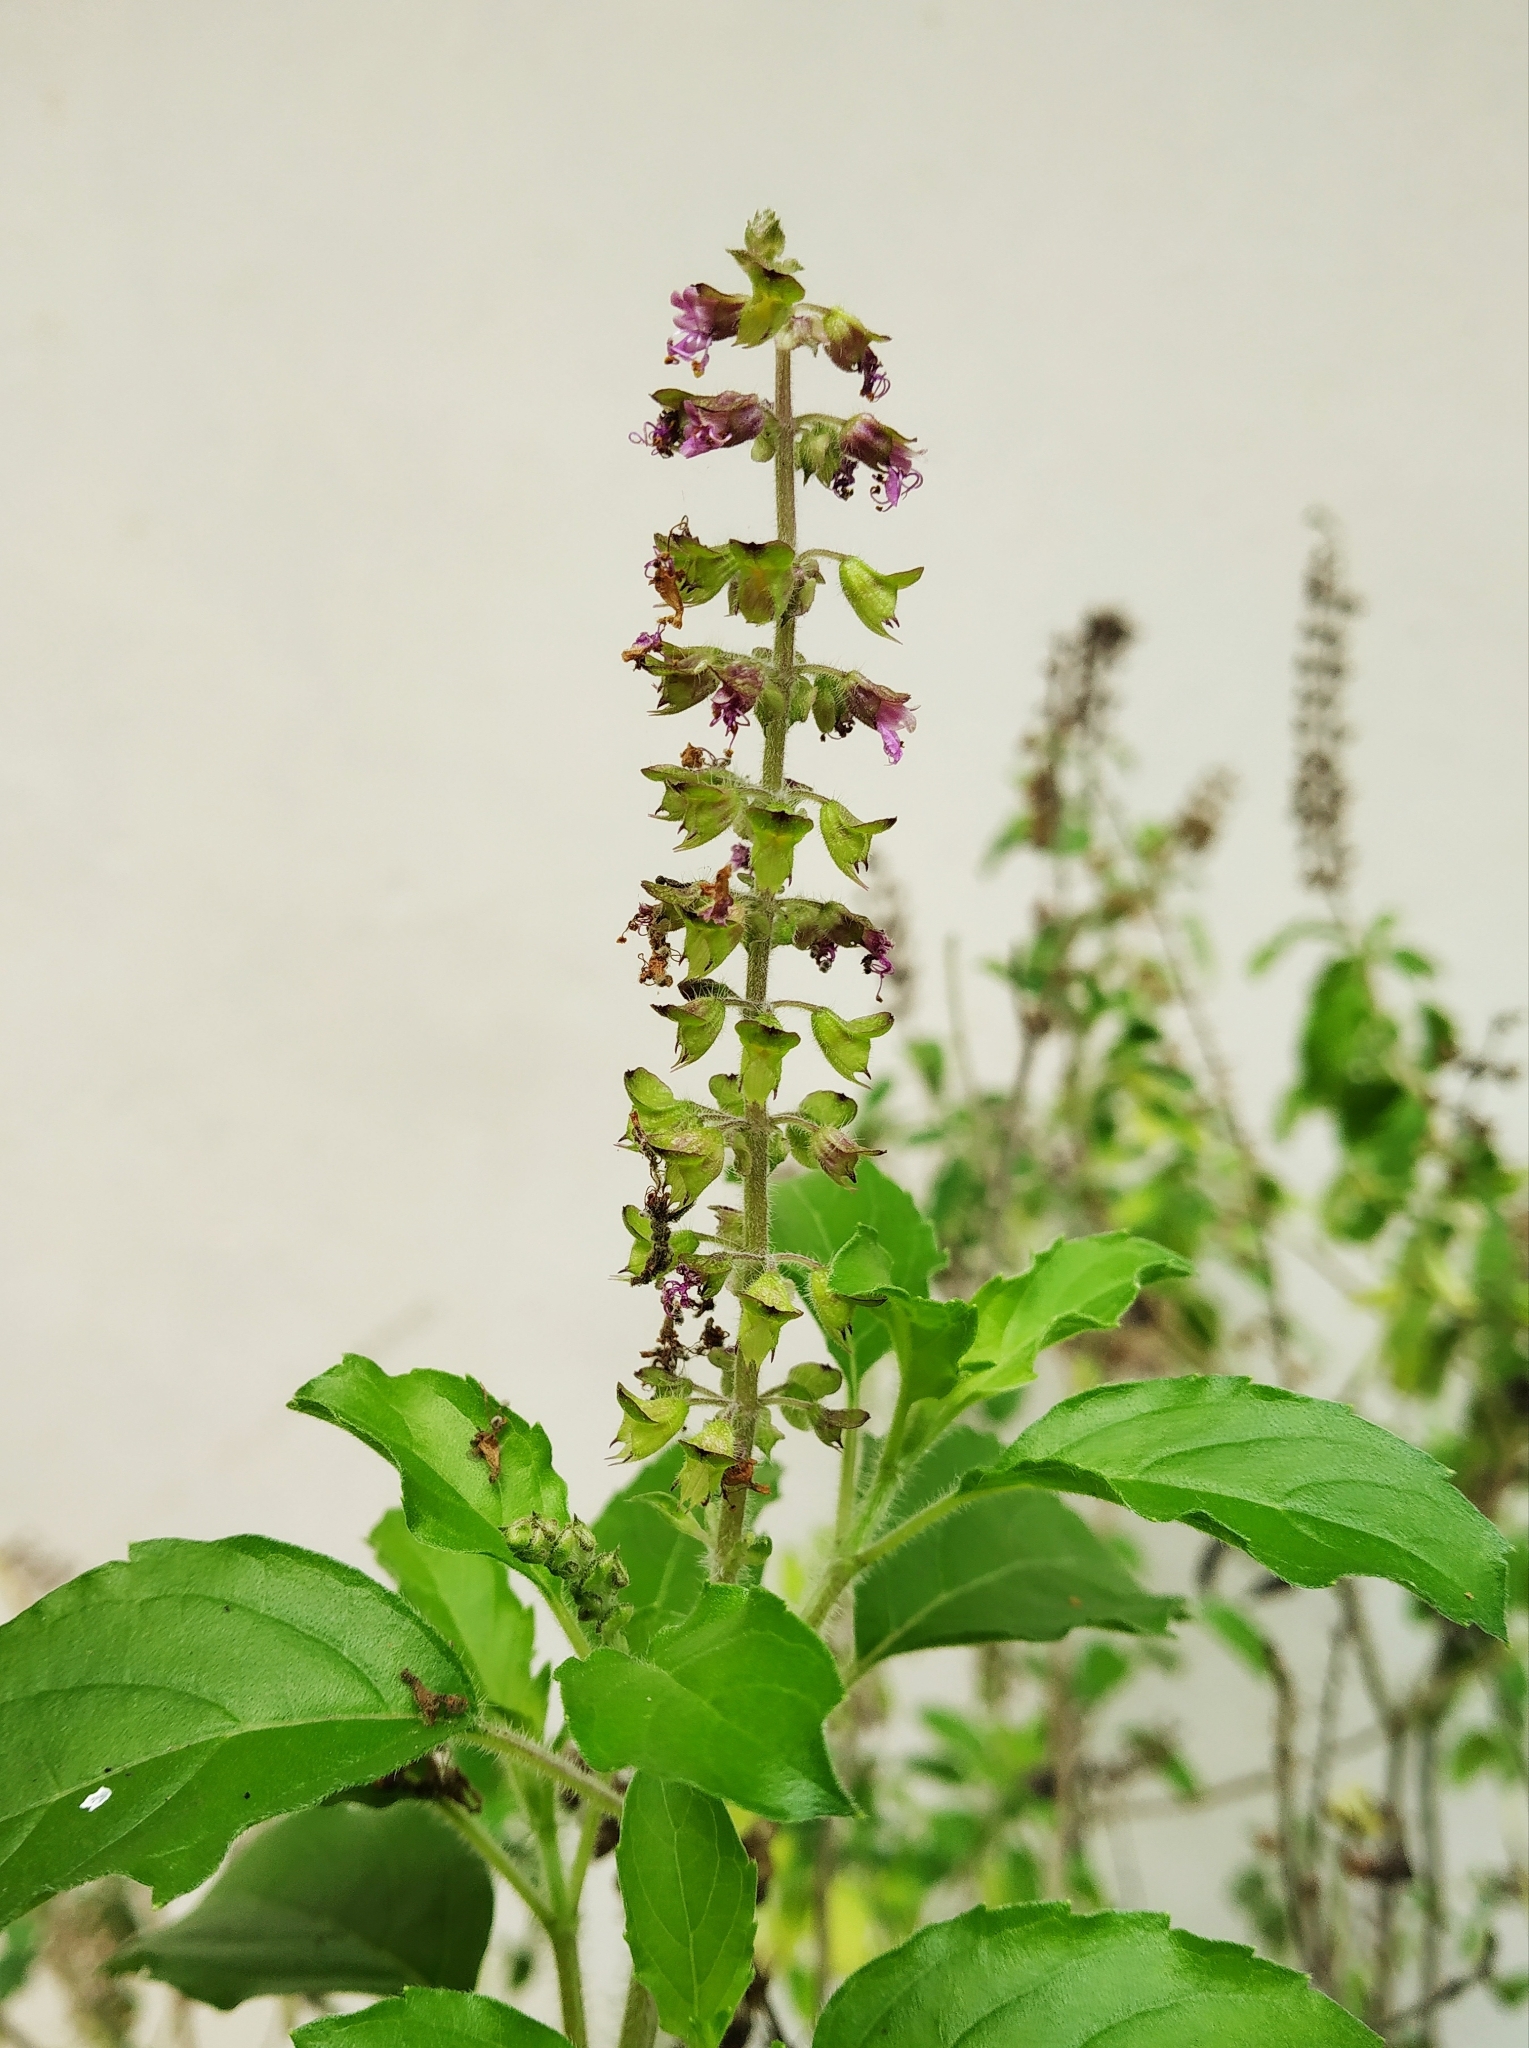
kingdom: Plantae
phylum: Tracheophyta
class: Magnoliopsida
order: Lamiales
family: Lamiaceae
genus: Ocimum
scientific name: Ocimum tenuiflorum
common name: Sacred basil
